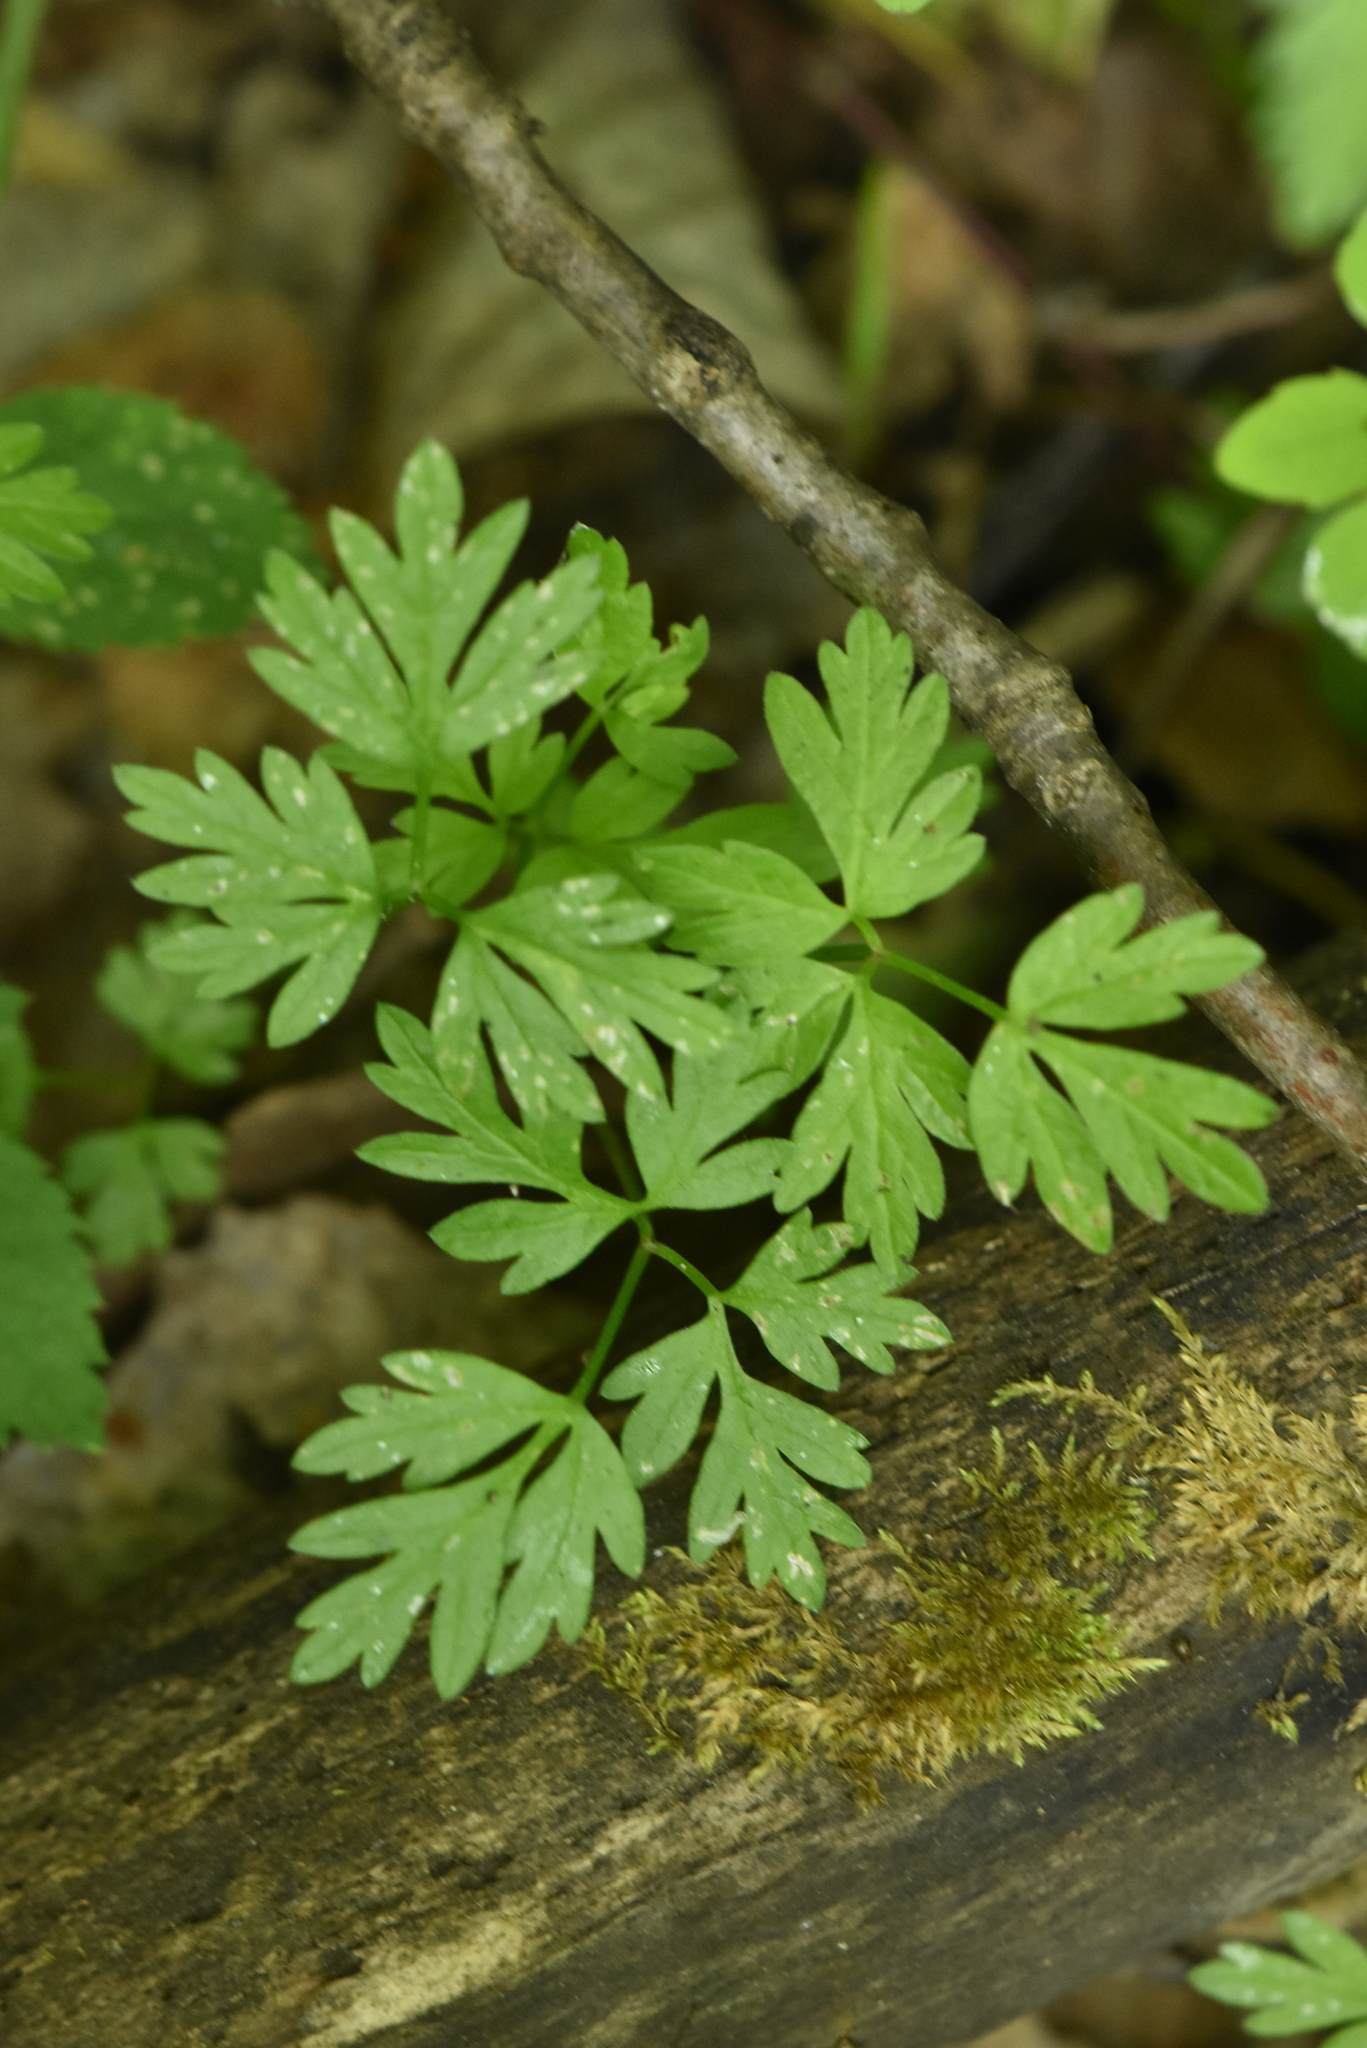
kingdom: Plantae
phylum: Tracheophyta
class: Magnoliopsida
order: Apiales
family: Apiaceae
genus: Anthriscus
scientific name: Anthriscus sylvestris
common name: Cow parsley
